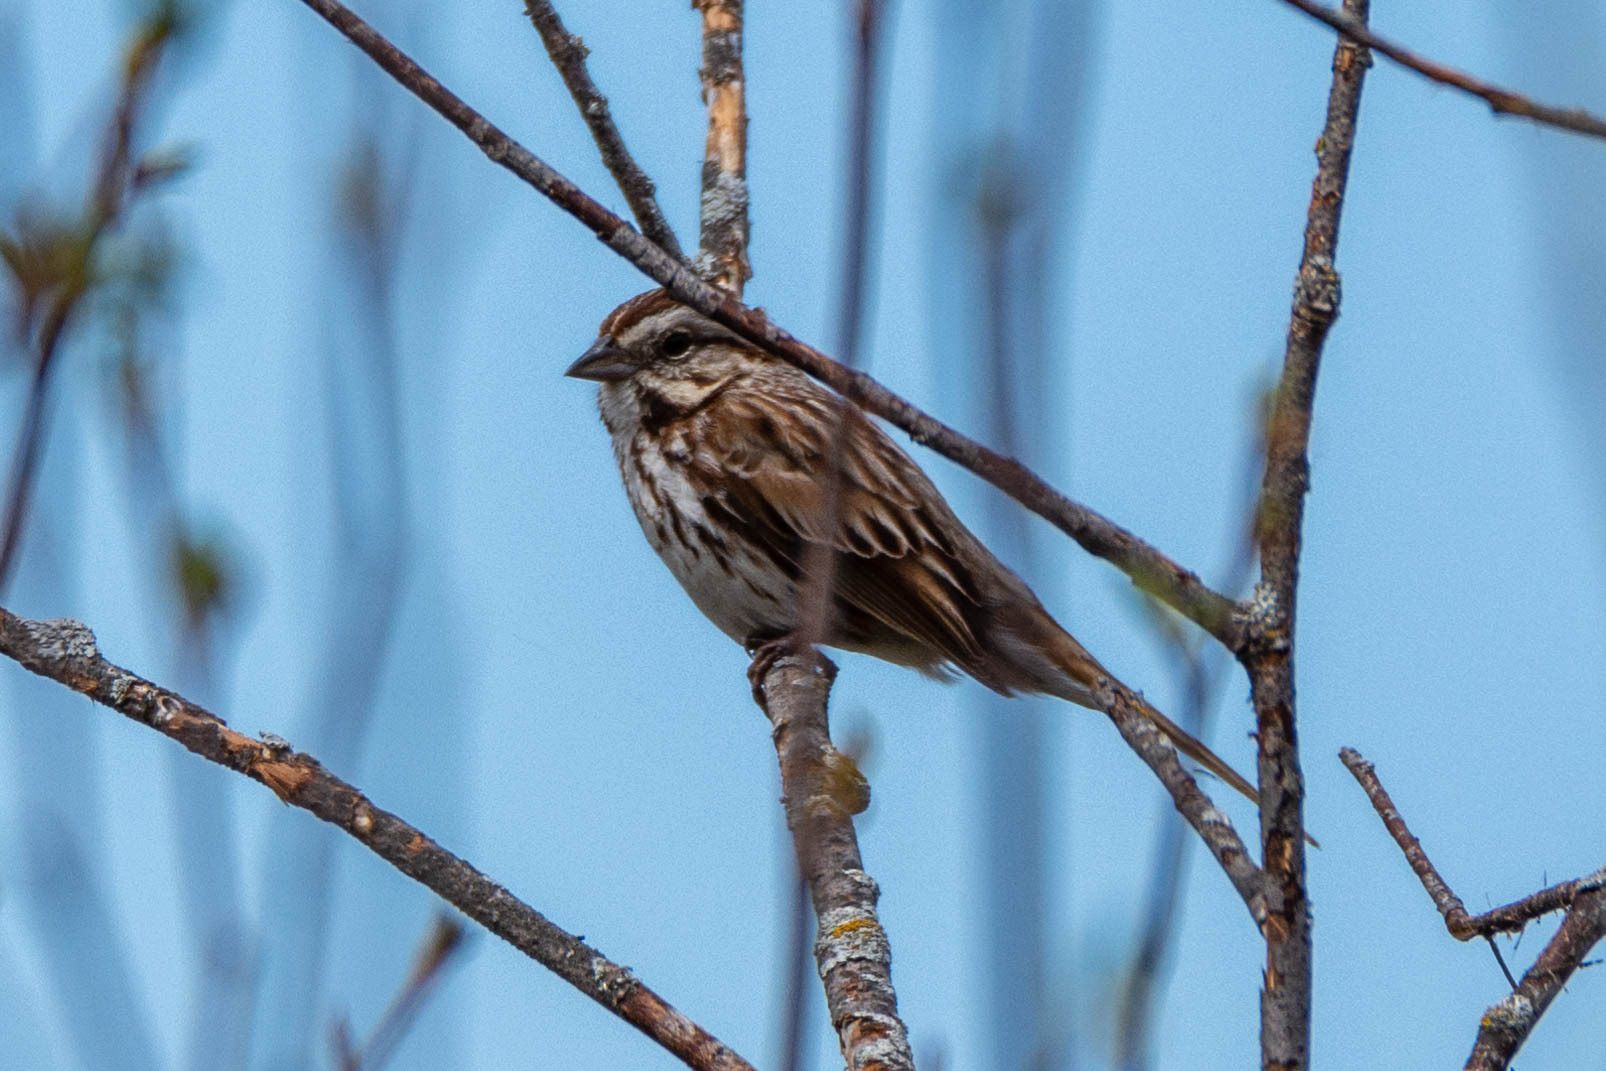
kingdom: Animalia
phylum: Chordata
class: Aves
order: Passeriformes
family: Passerellidae
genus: Melospiza
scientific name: Melospiza melodia
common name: Song sparrow
